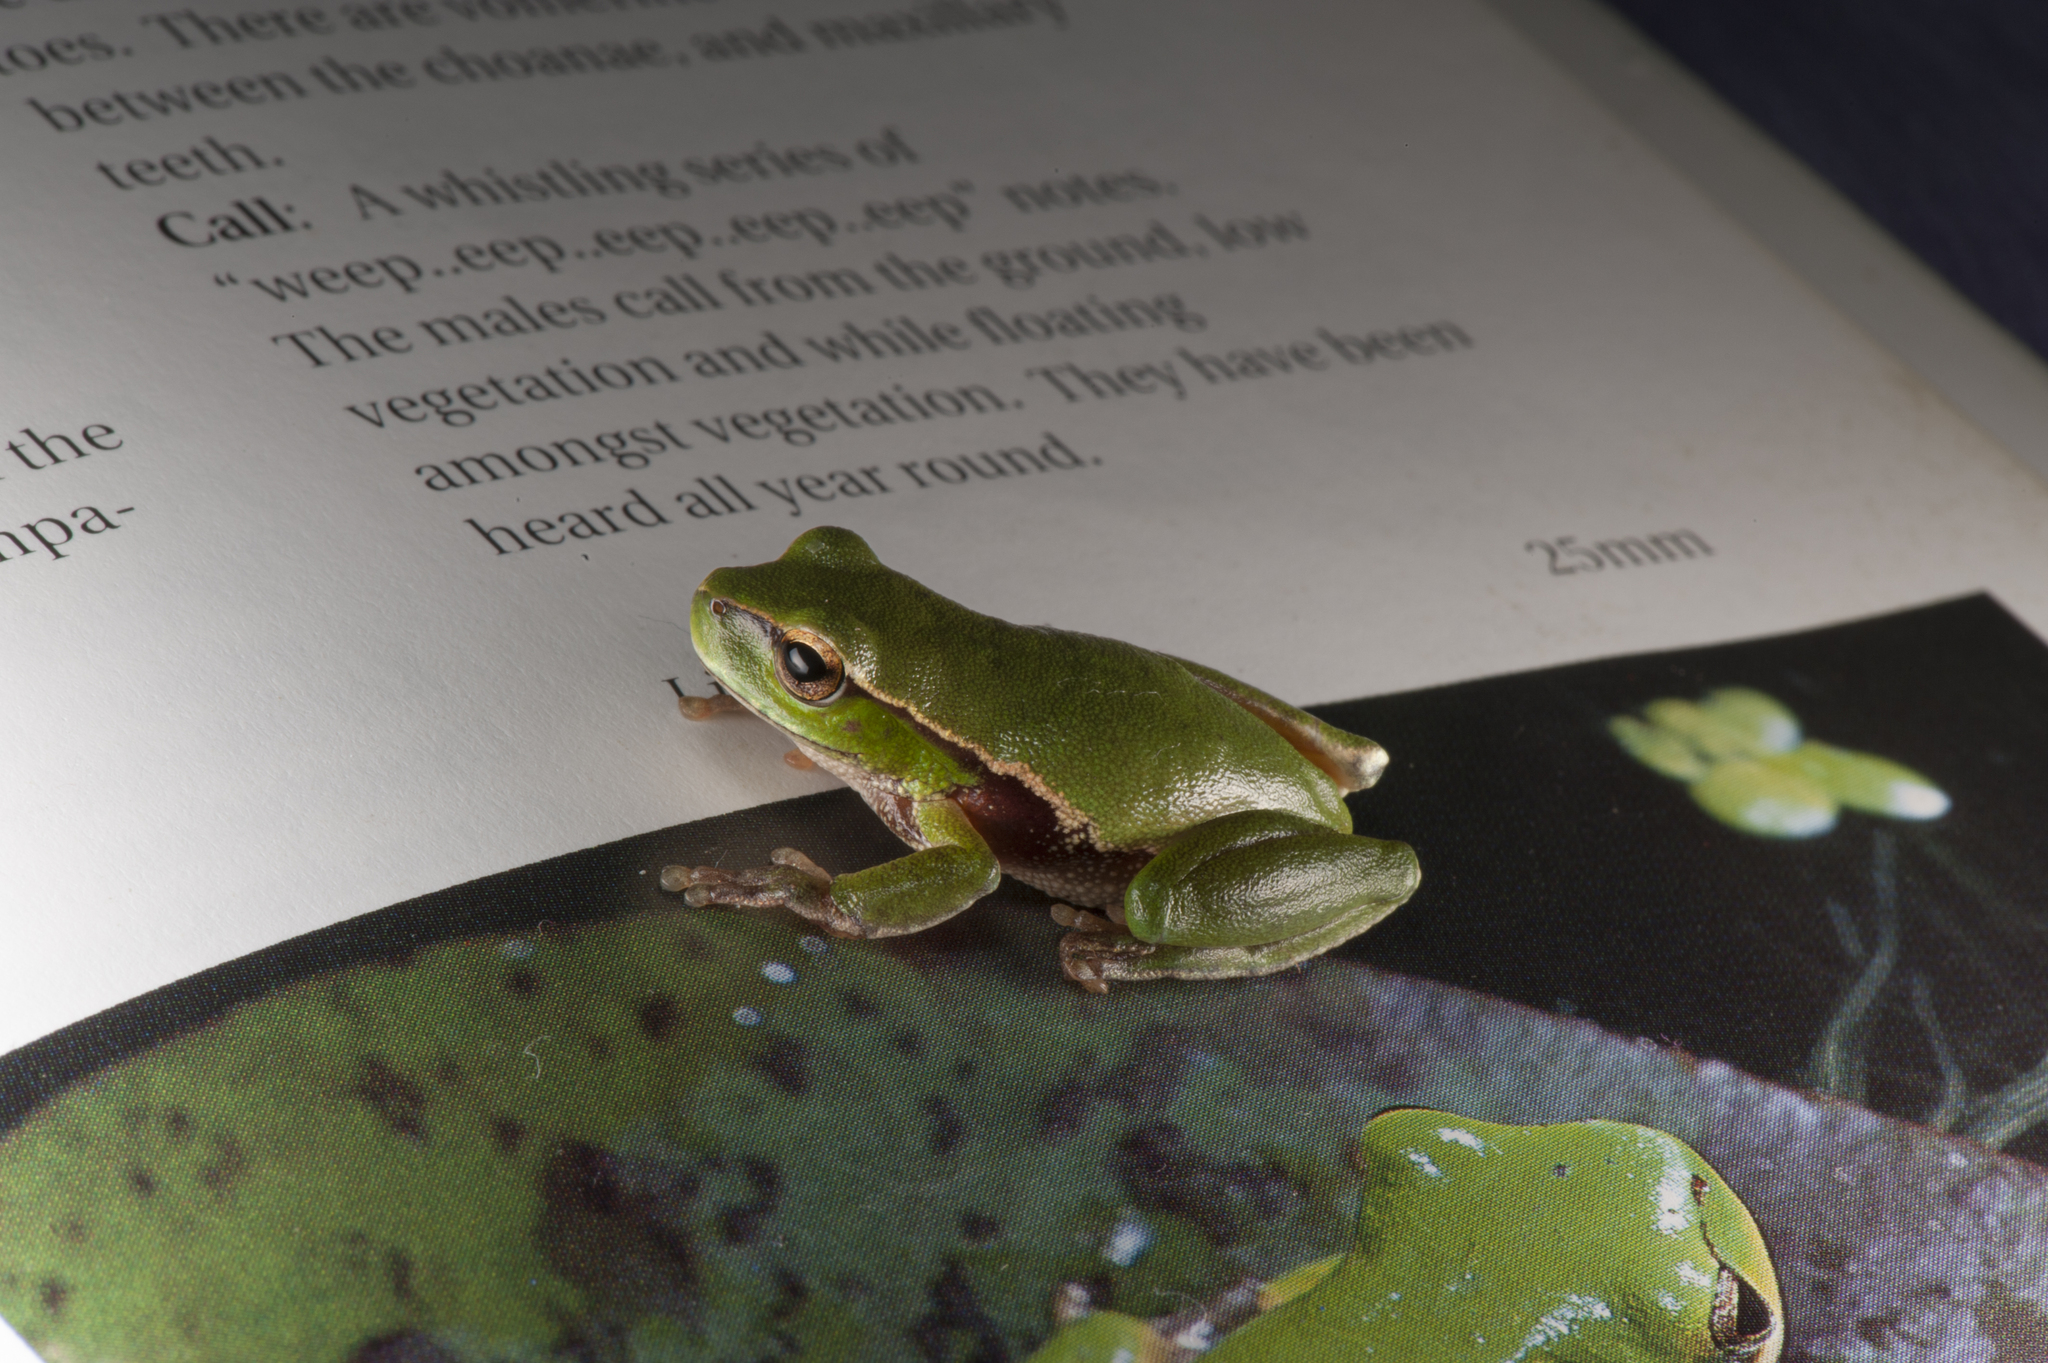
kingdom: Animalia
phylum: Chordata
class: Amphibia
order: Anura
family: Pelodryadidae
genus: Ranoidea
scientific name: Ranoidea phyllochroa
